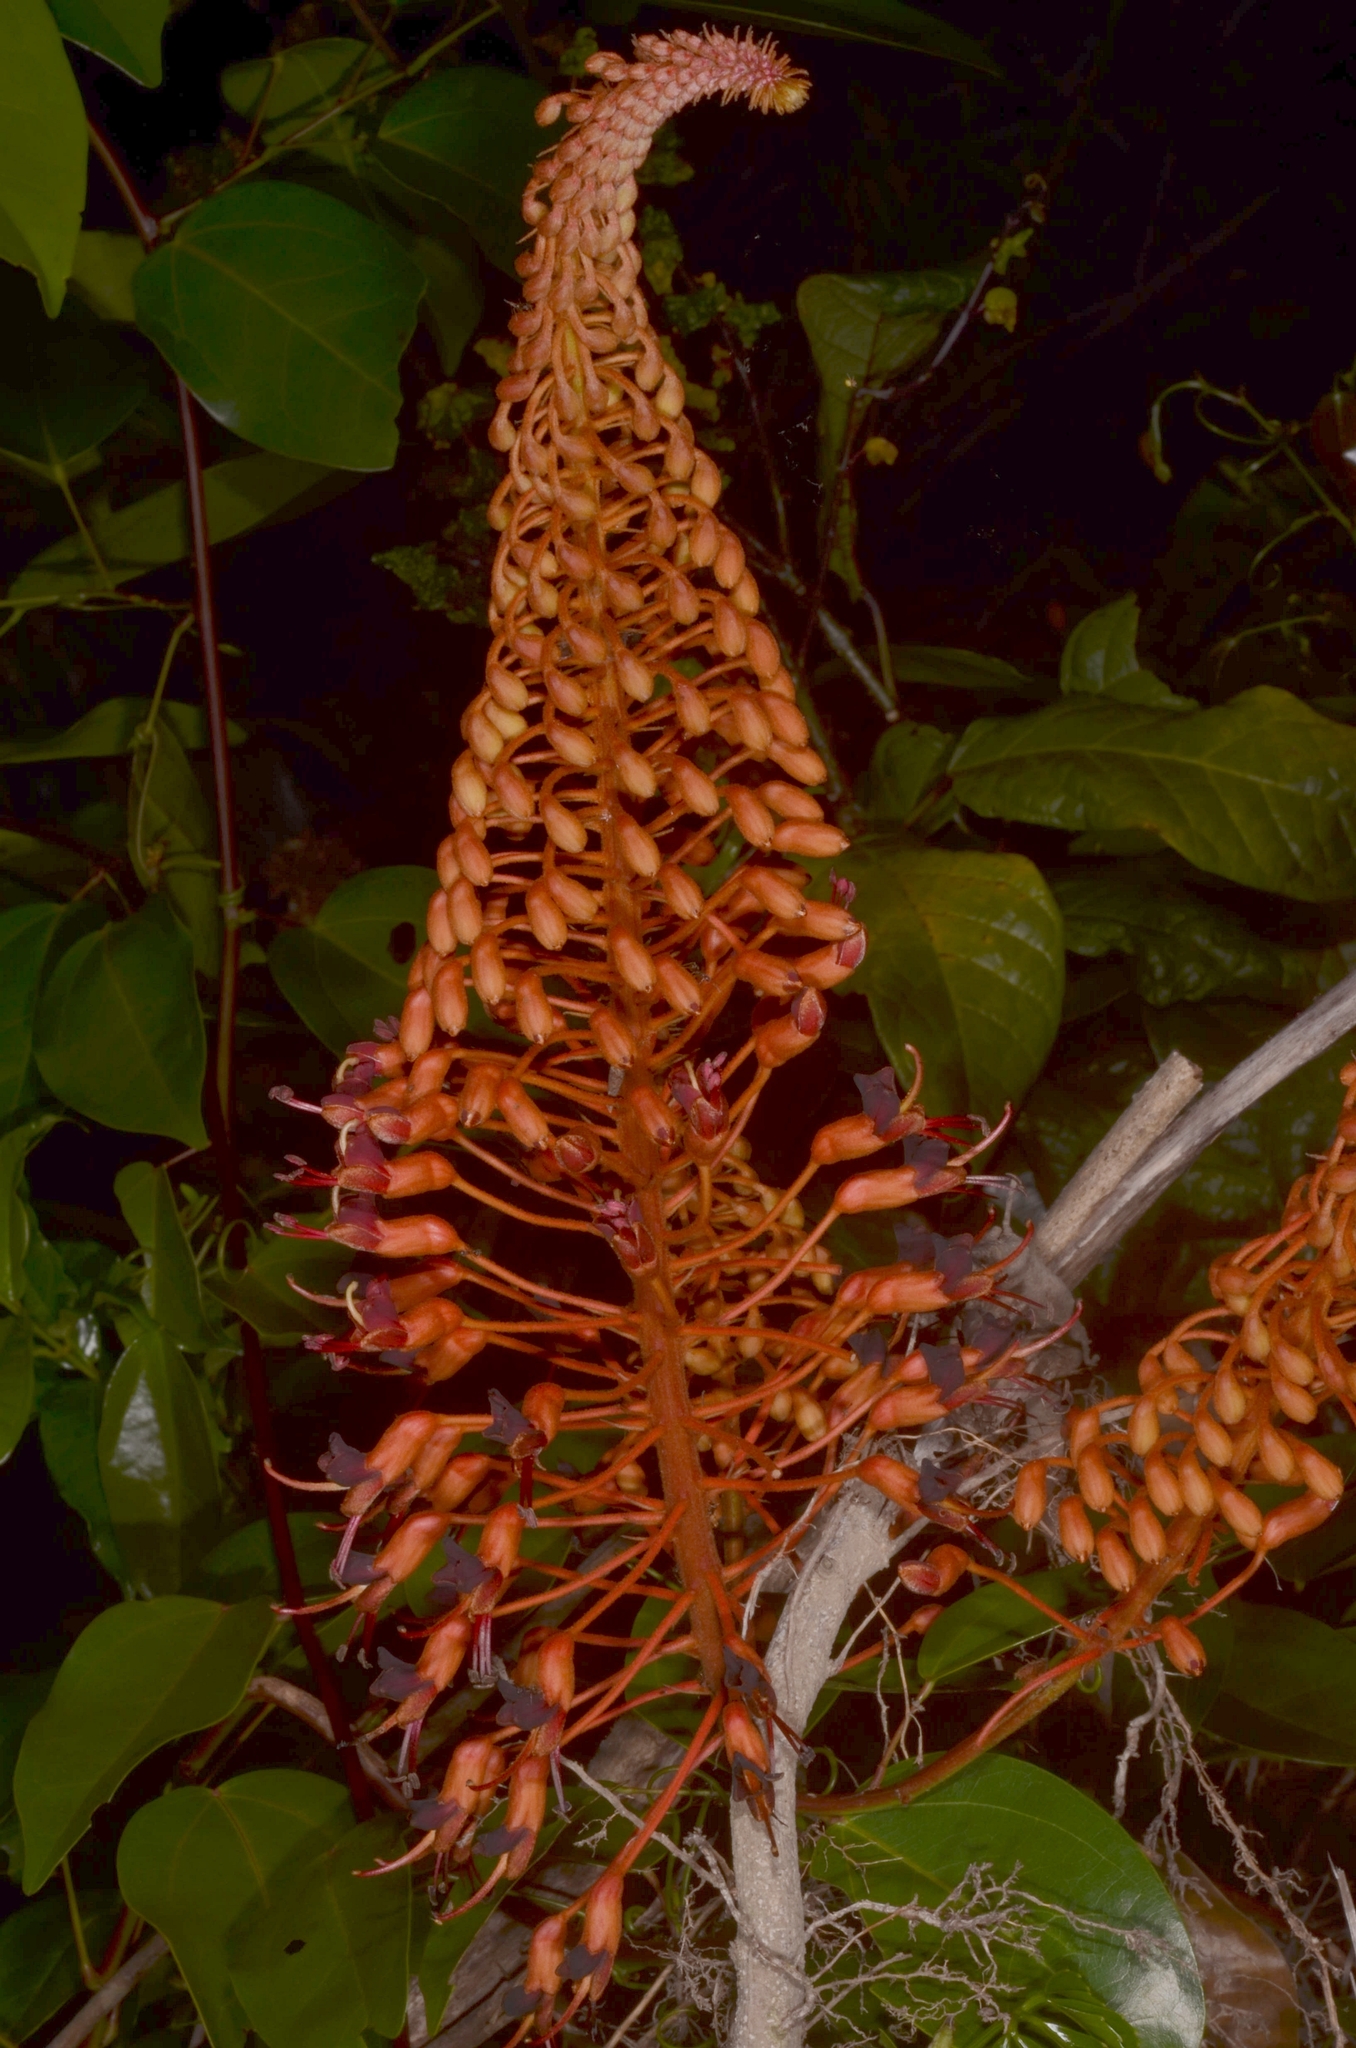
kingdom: Plantae
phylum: Tracheophyta
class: Magnoliopsida
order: Fabales
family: Fabaceae
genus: Phanera
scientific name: Phanera cardinalis
